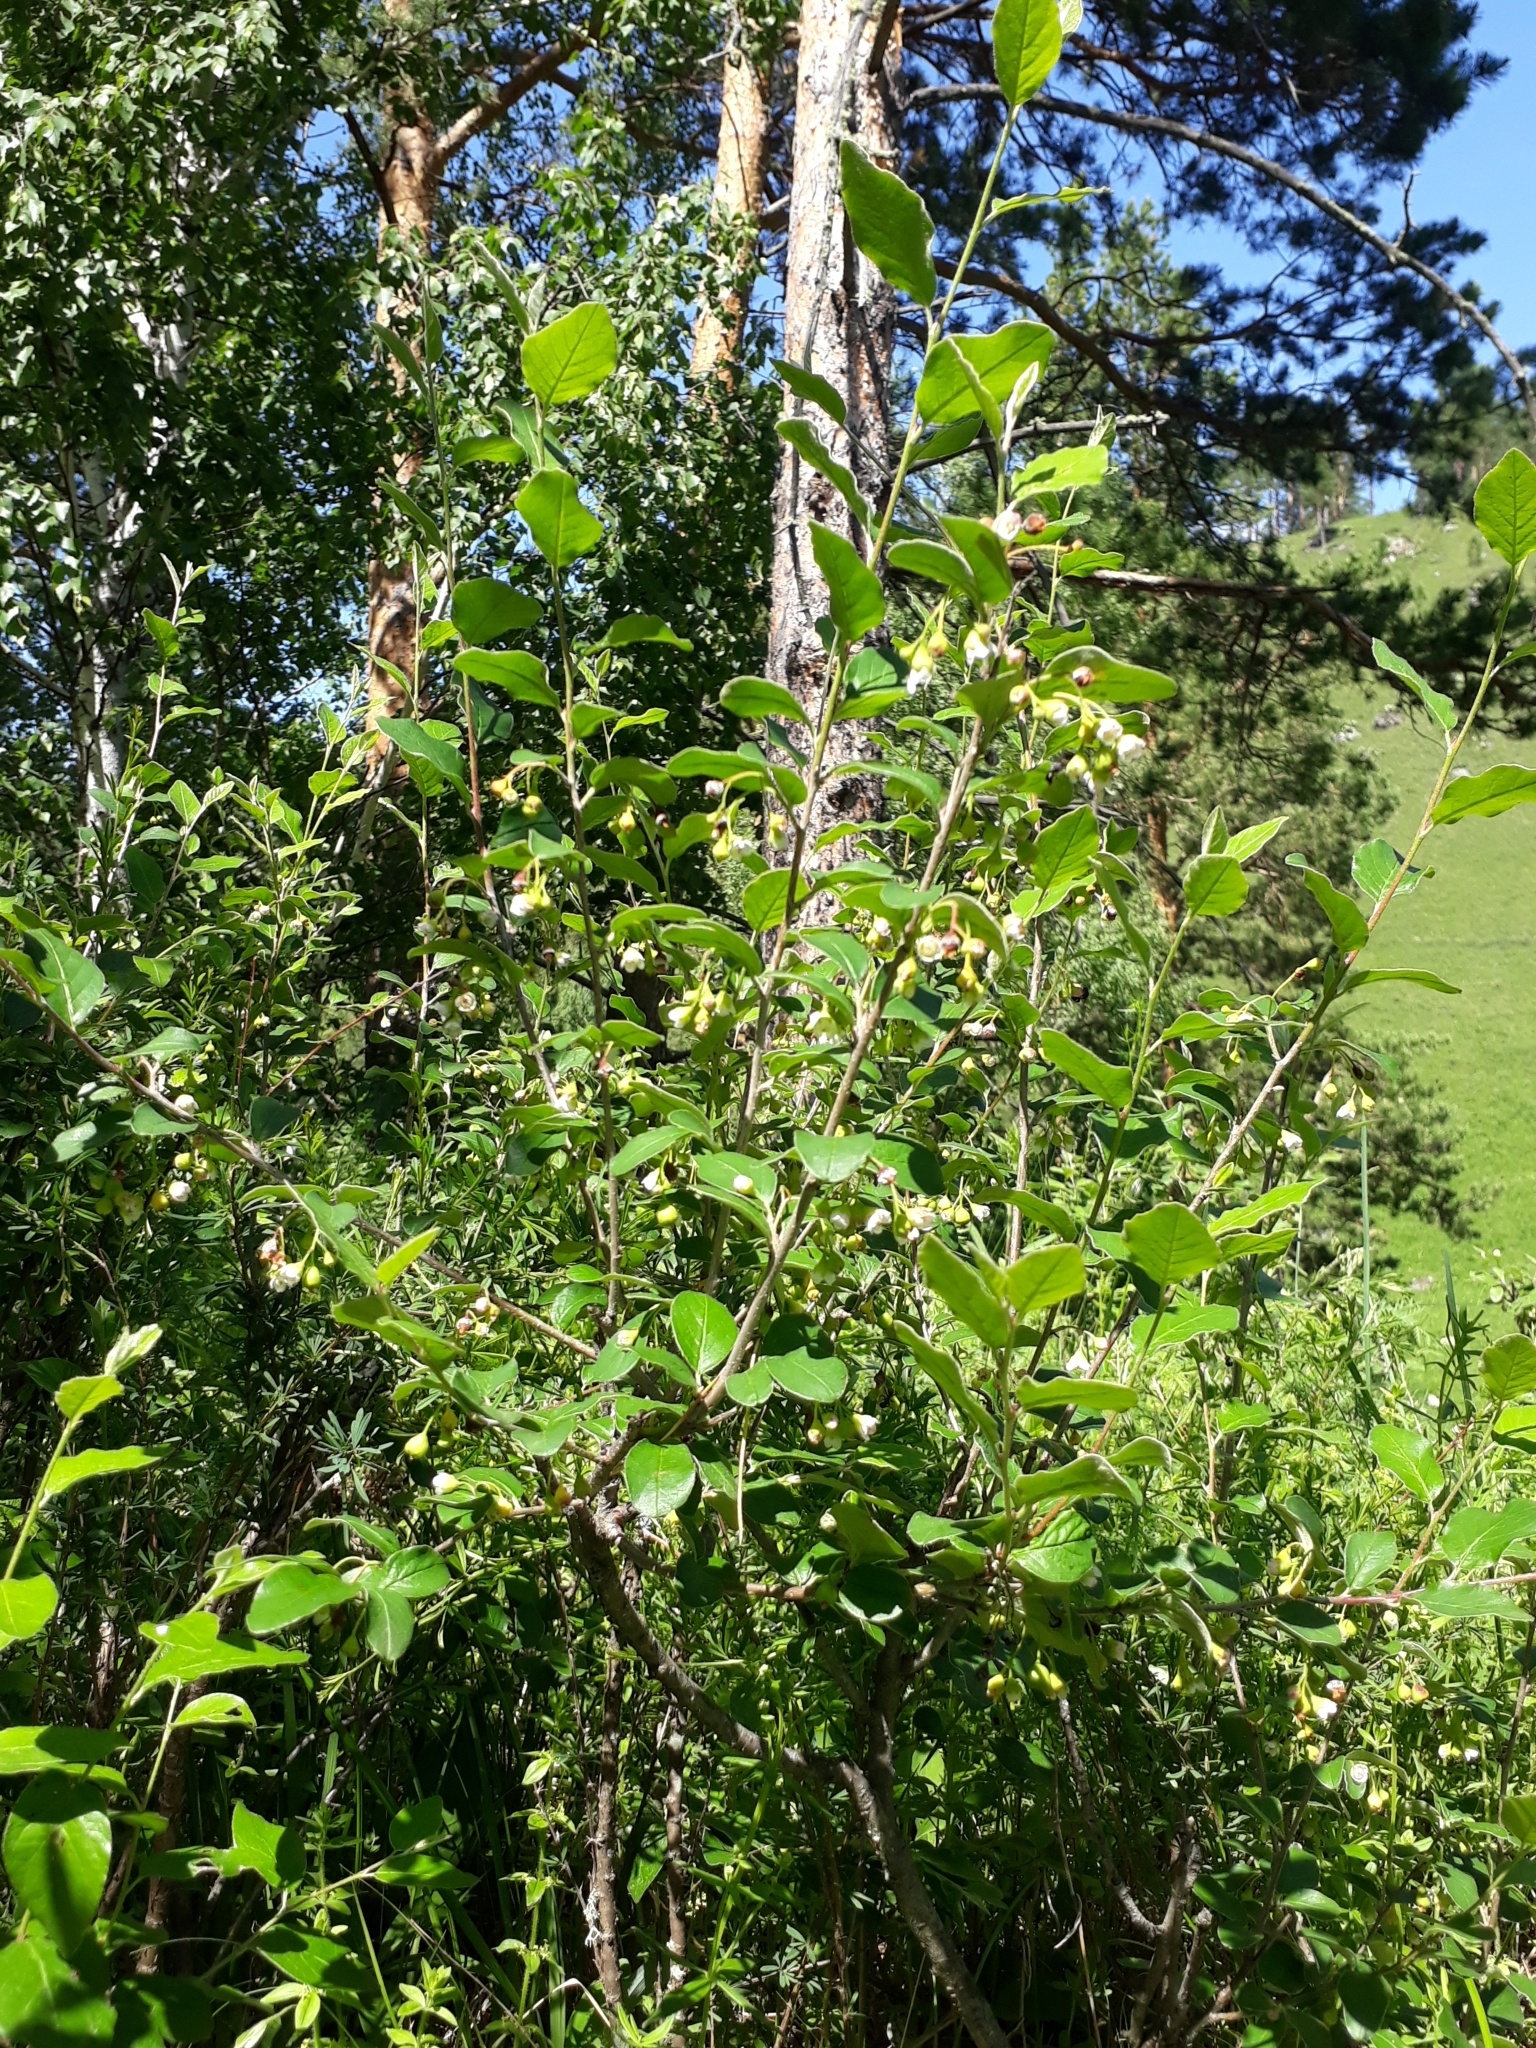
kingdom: Plantae
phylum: Tracheophyta
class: Magnoliopsida
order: Rosales
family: Rosaceae
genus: Cotoneaster
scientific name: Cotoneaster melanocarpus
